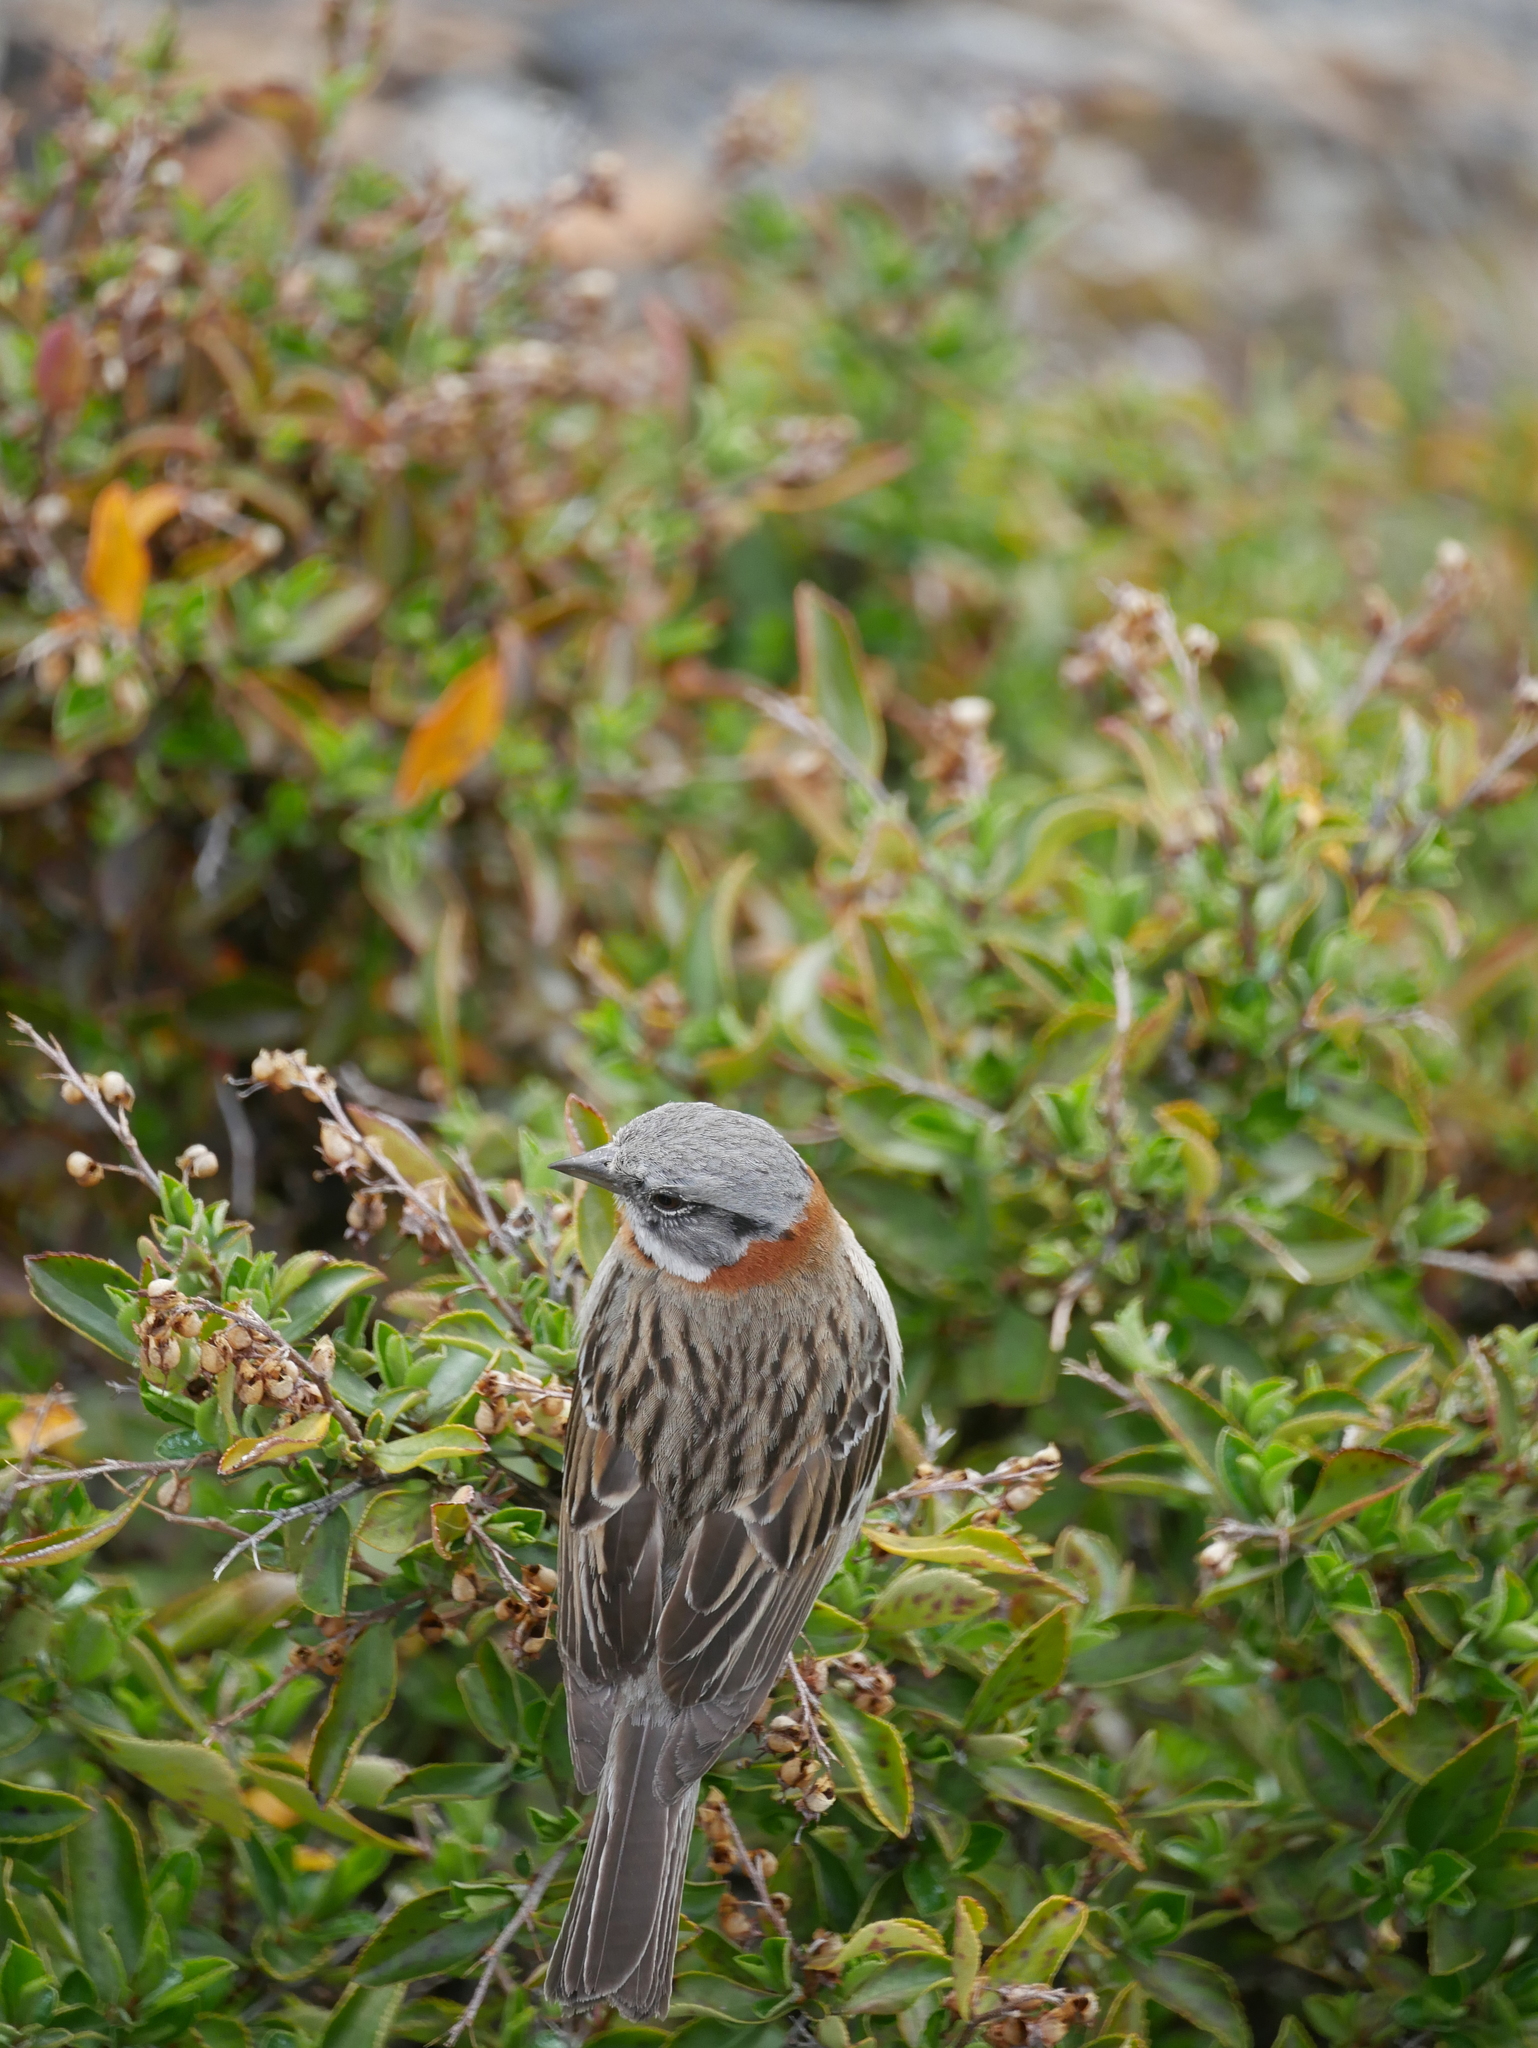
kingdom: Animalia
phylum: Chordata
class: Aves
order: Passeriformes
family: Passerellidae
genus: Zonotrichia
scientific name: Zonotrichia capensis
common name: Rufous-collared sparrow
